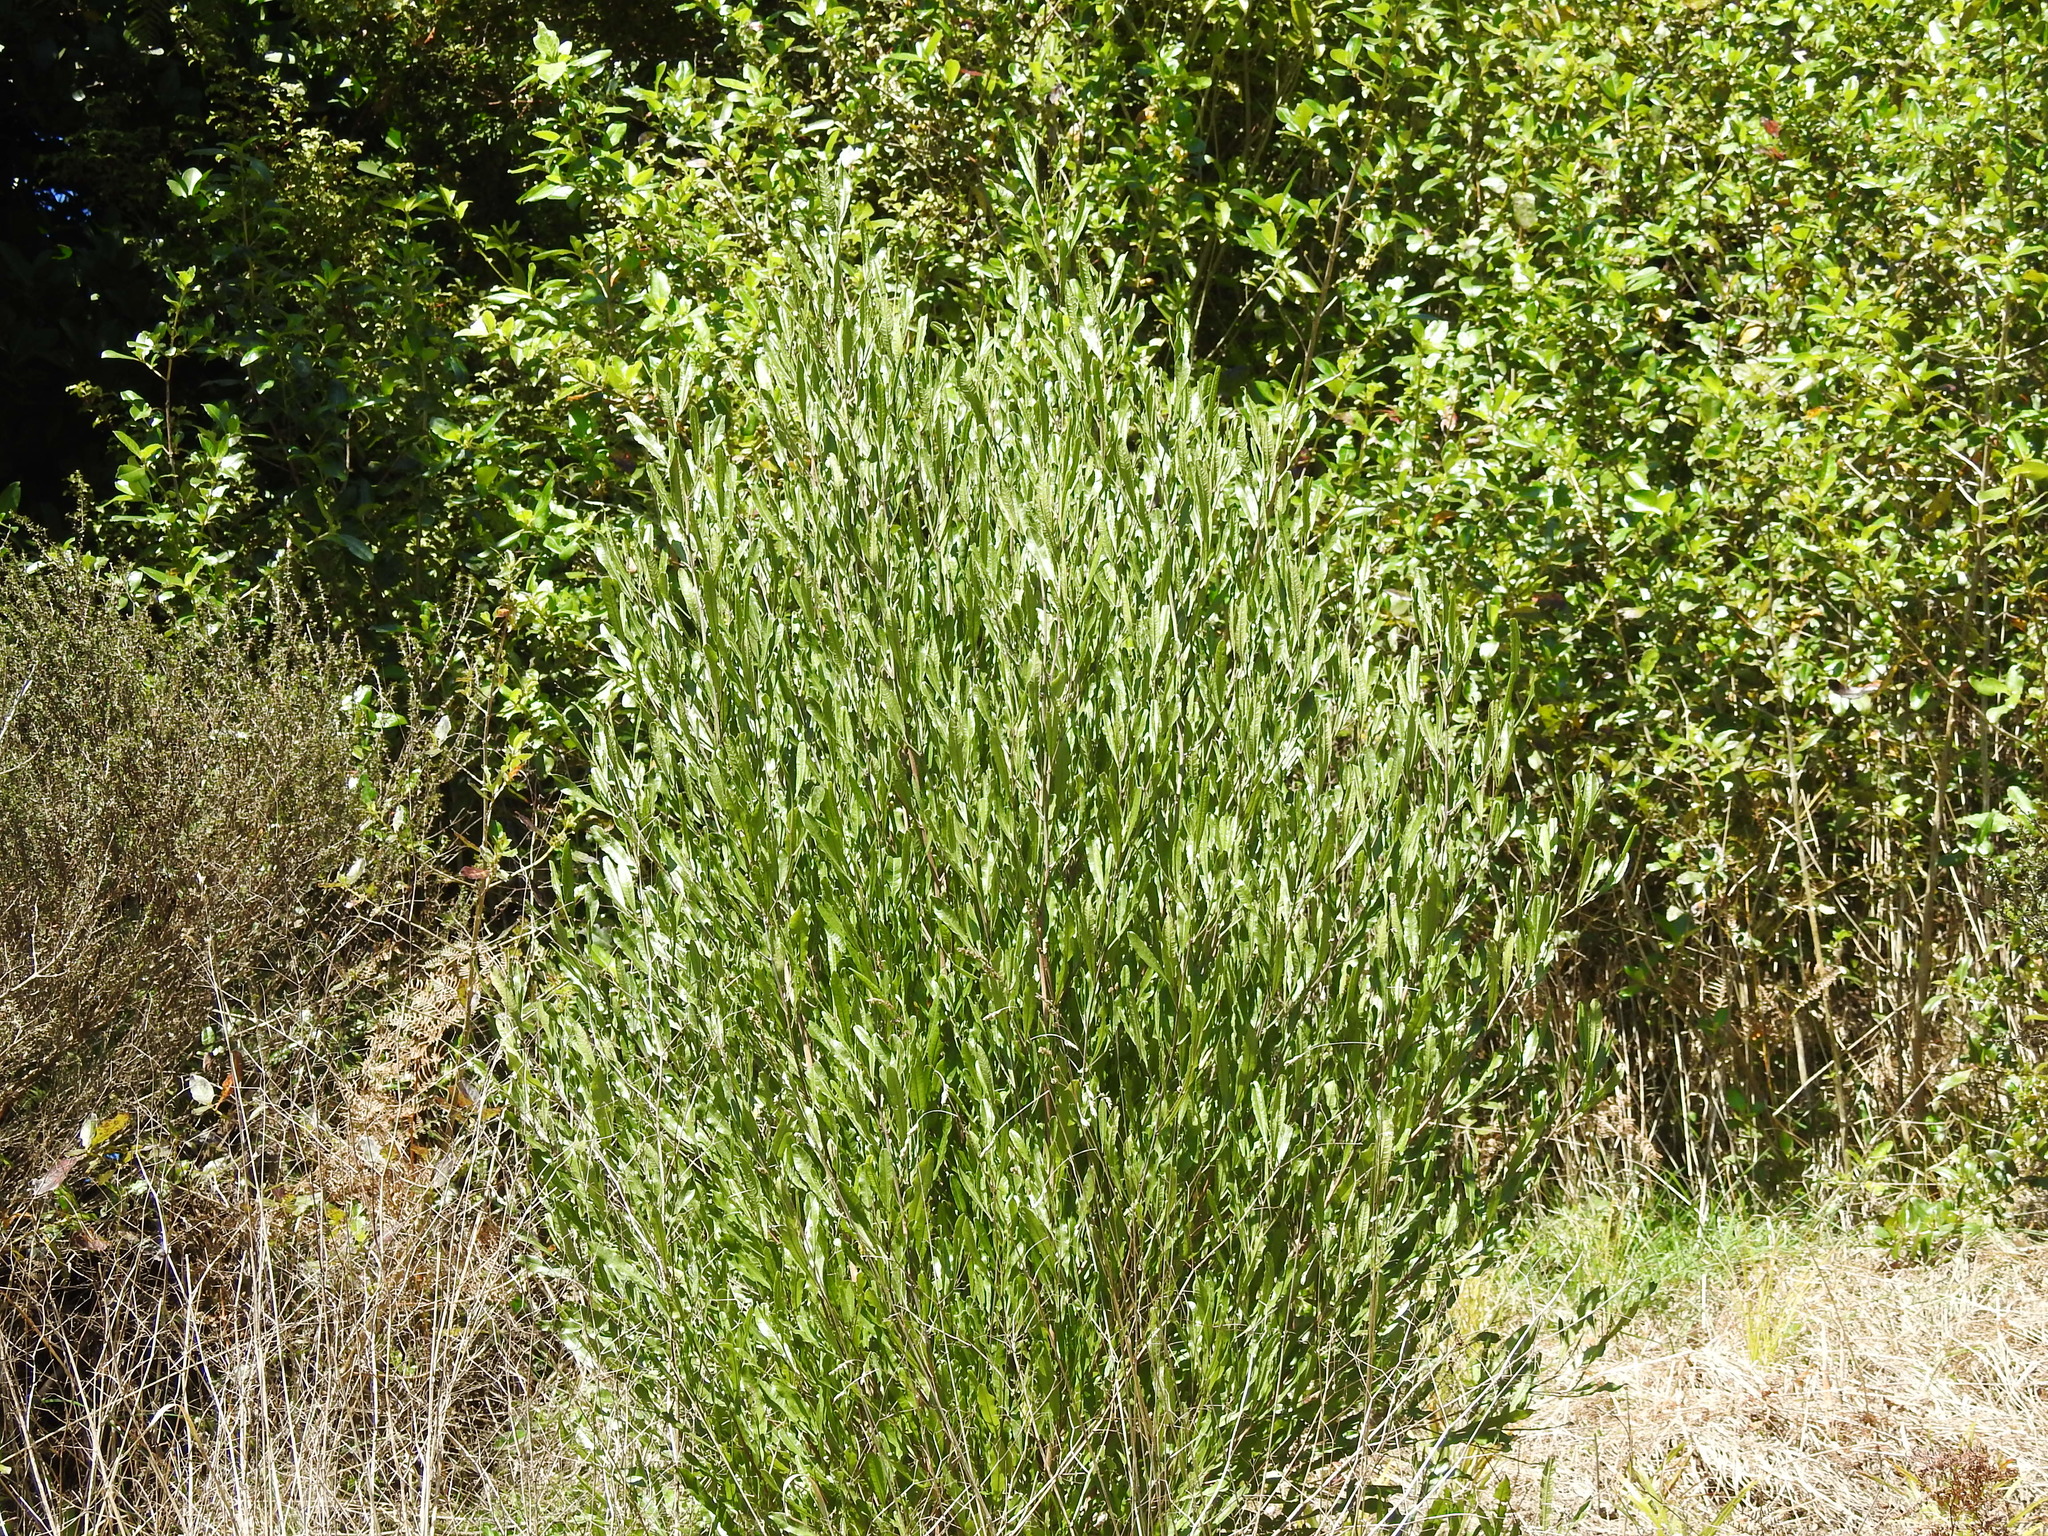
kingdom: Plantae
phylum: Tracheophyta
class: Magnoliopsida
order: Sapindales
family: Sapindaceae
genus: Dodonaea
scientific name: Dodonaea viscosa
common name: Hopbush
